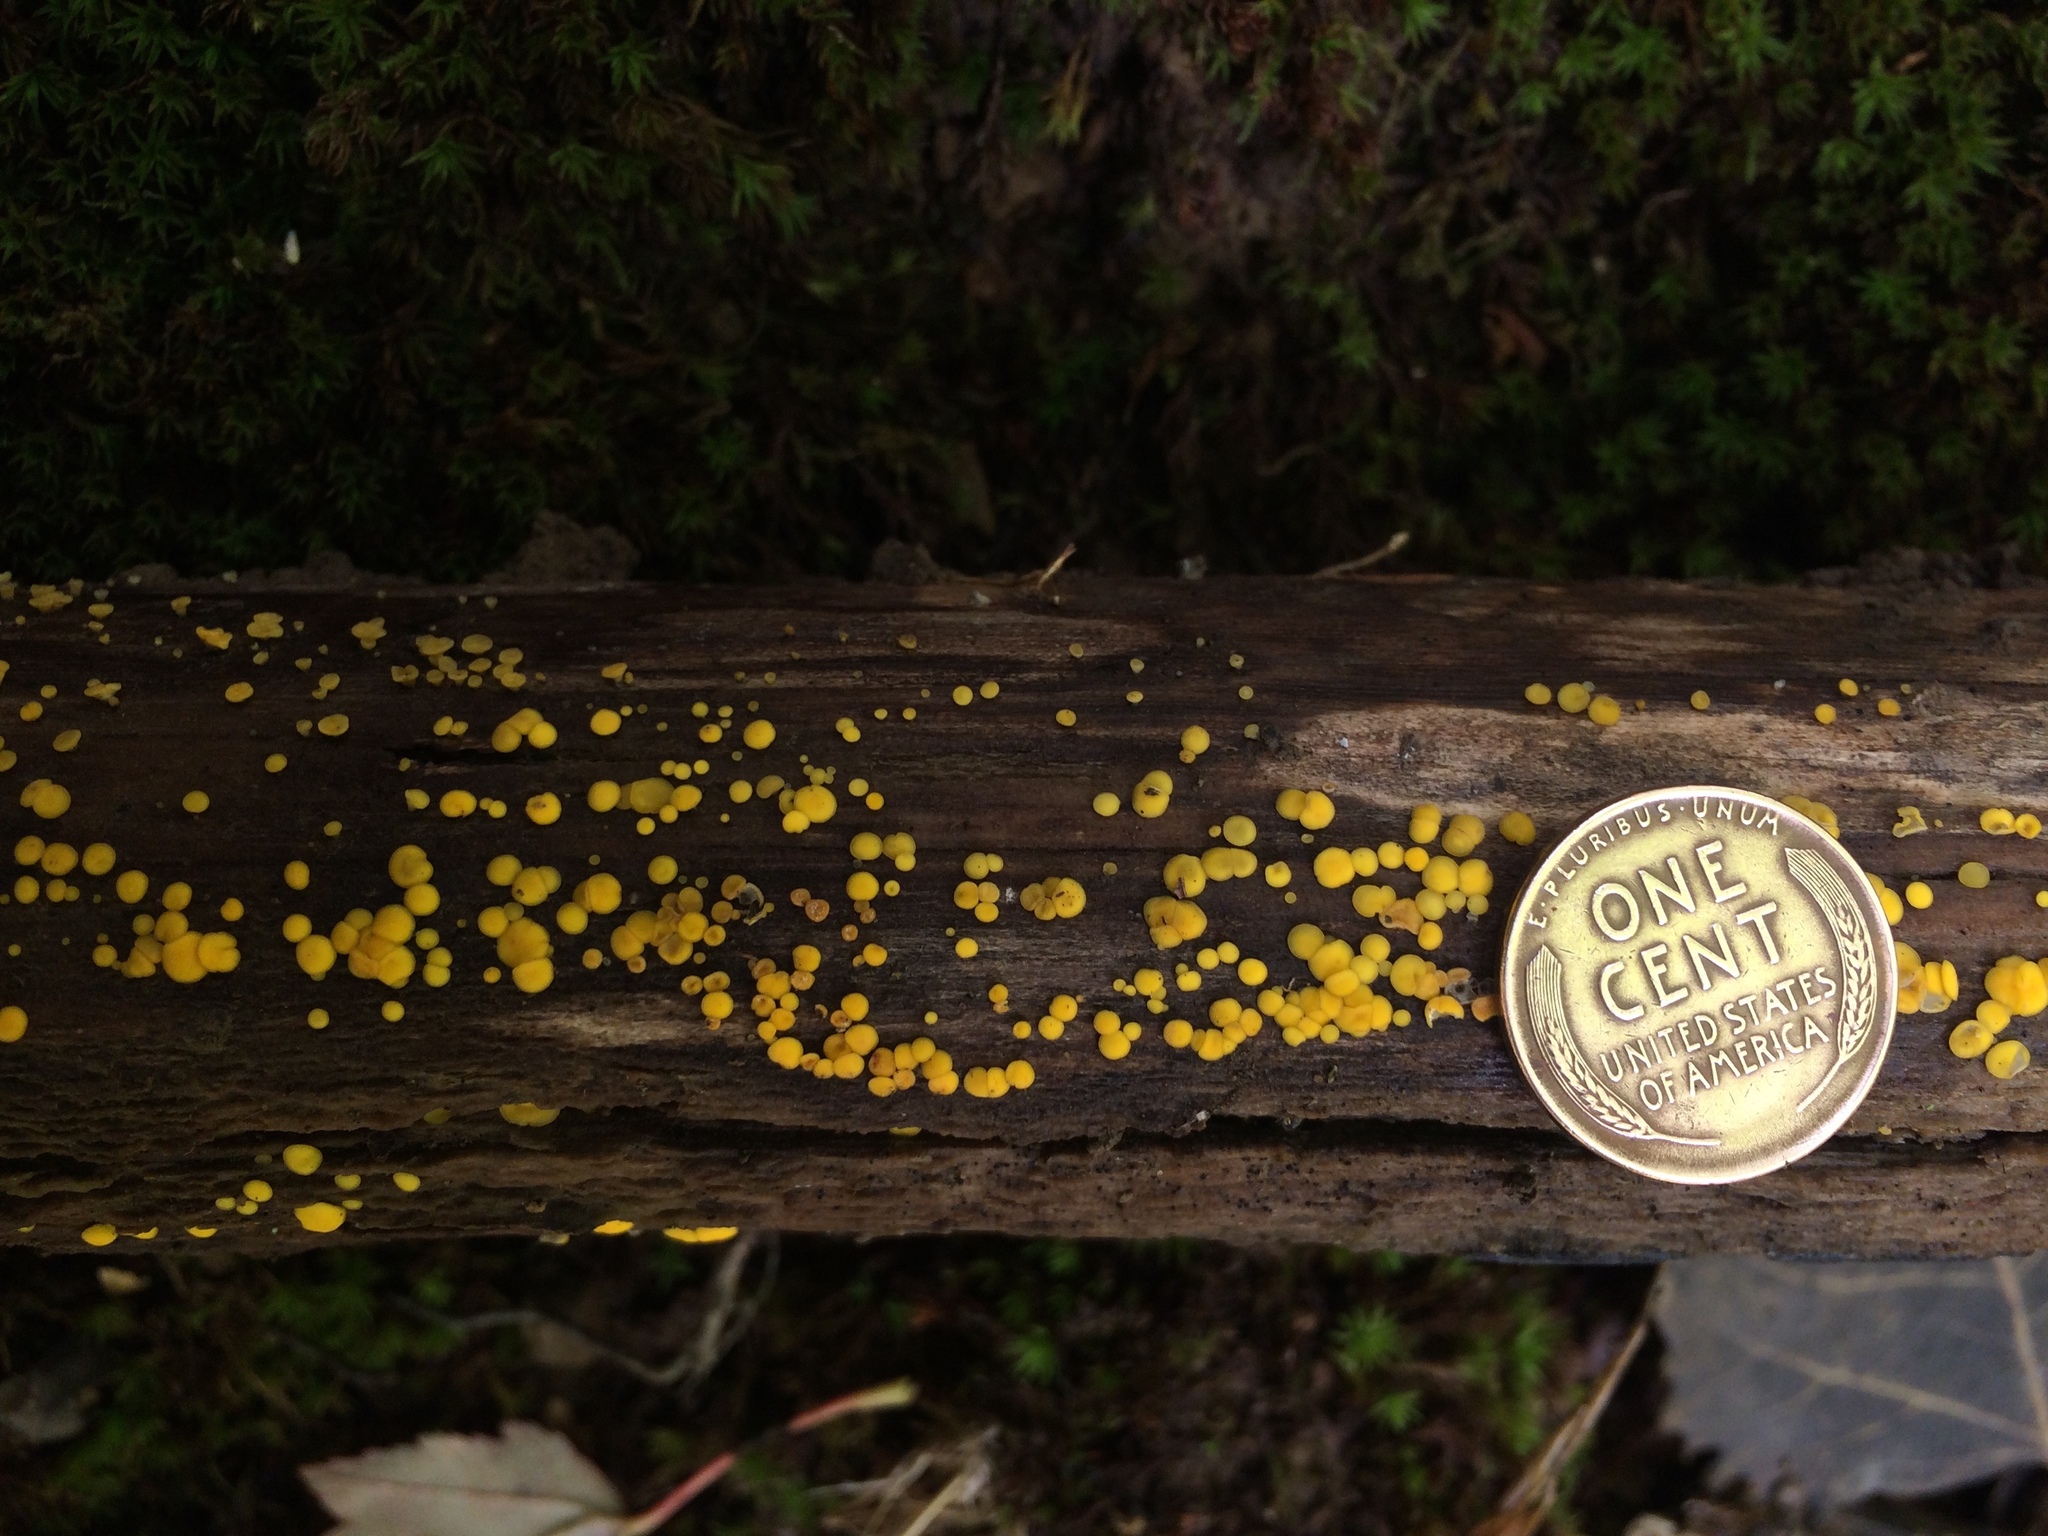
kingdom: Fungi
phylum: Ascomycota
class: Leotiomycetes
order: Helotiales
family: Pezizellaceae
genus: Calycina
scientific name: Calycina citrina
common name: Yellow fairy cups
